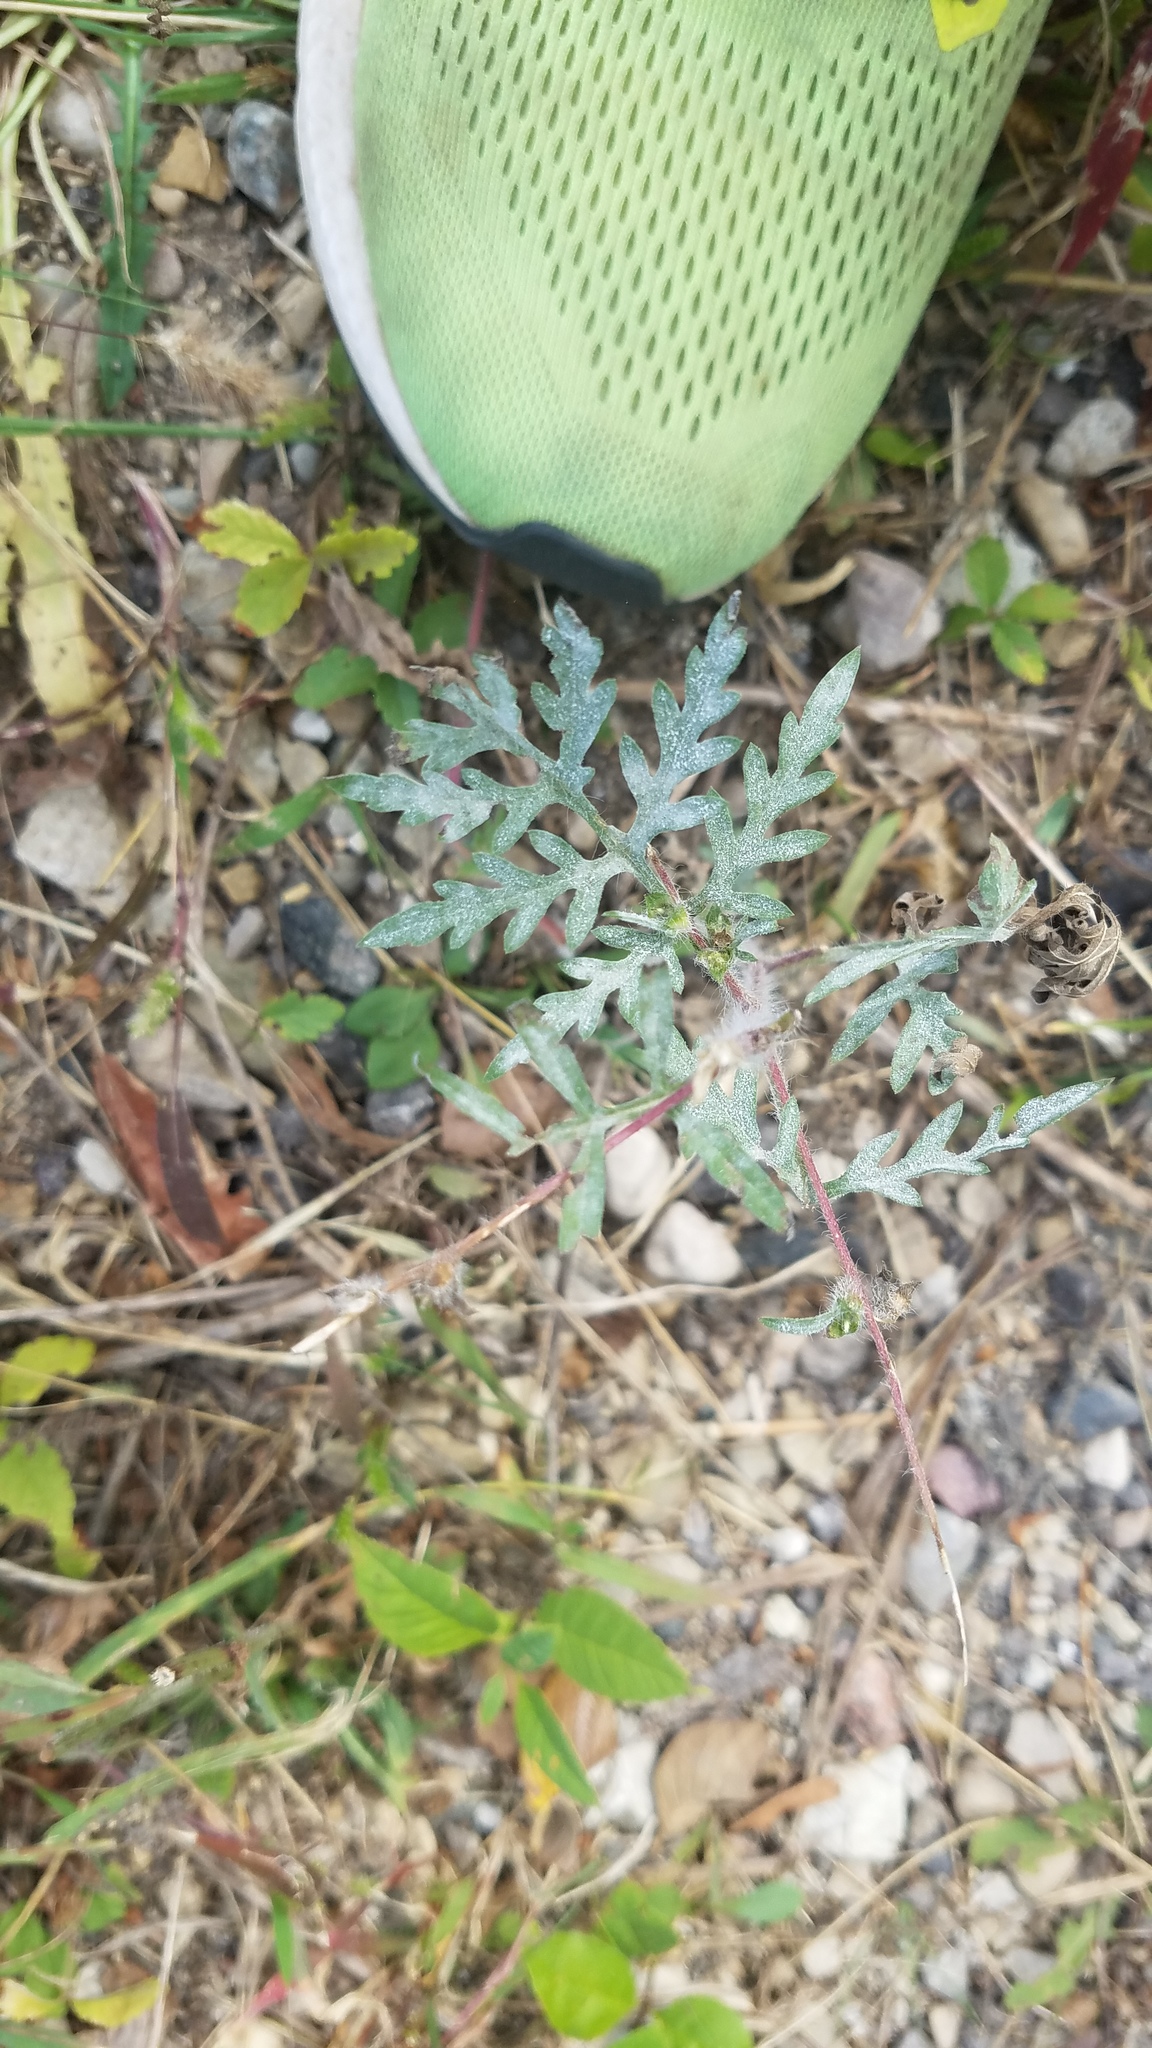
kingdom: Plantae
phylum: Tracheophyta
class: Magnoliopsida
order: Asterales
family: Asteraceae
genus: Ambrosia
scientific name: Ambrosia artemisiifolia
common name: Annual ragweed
